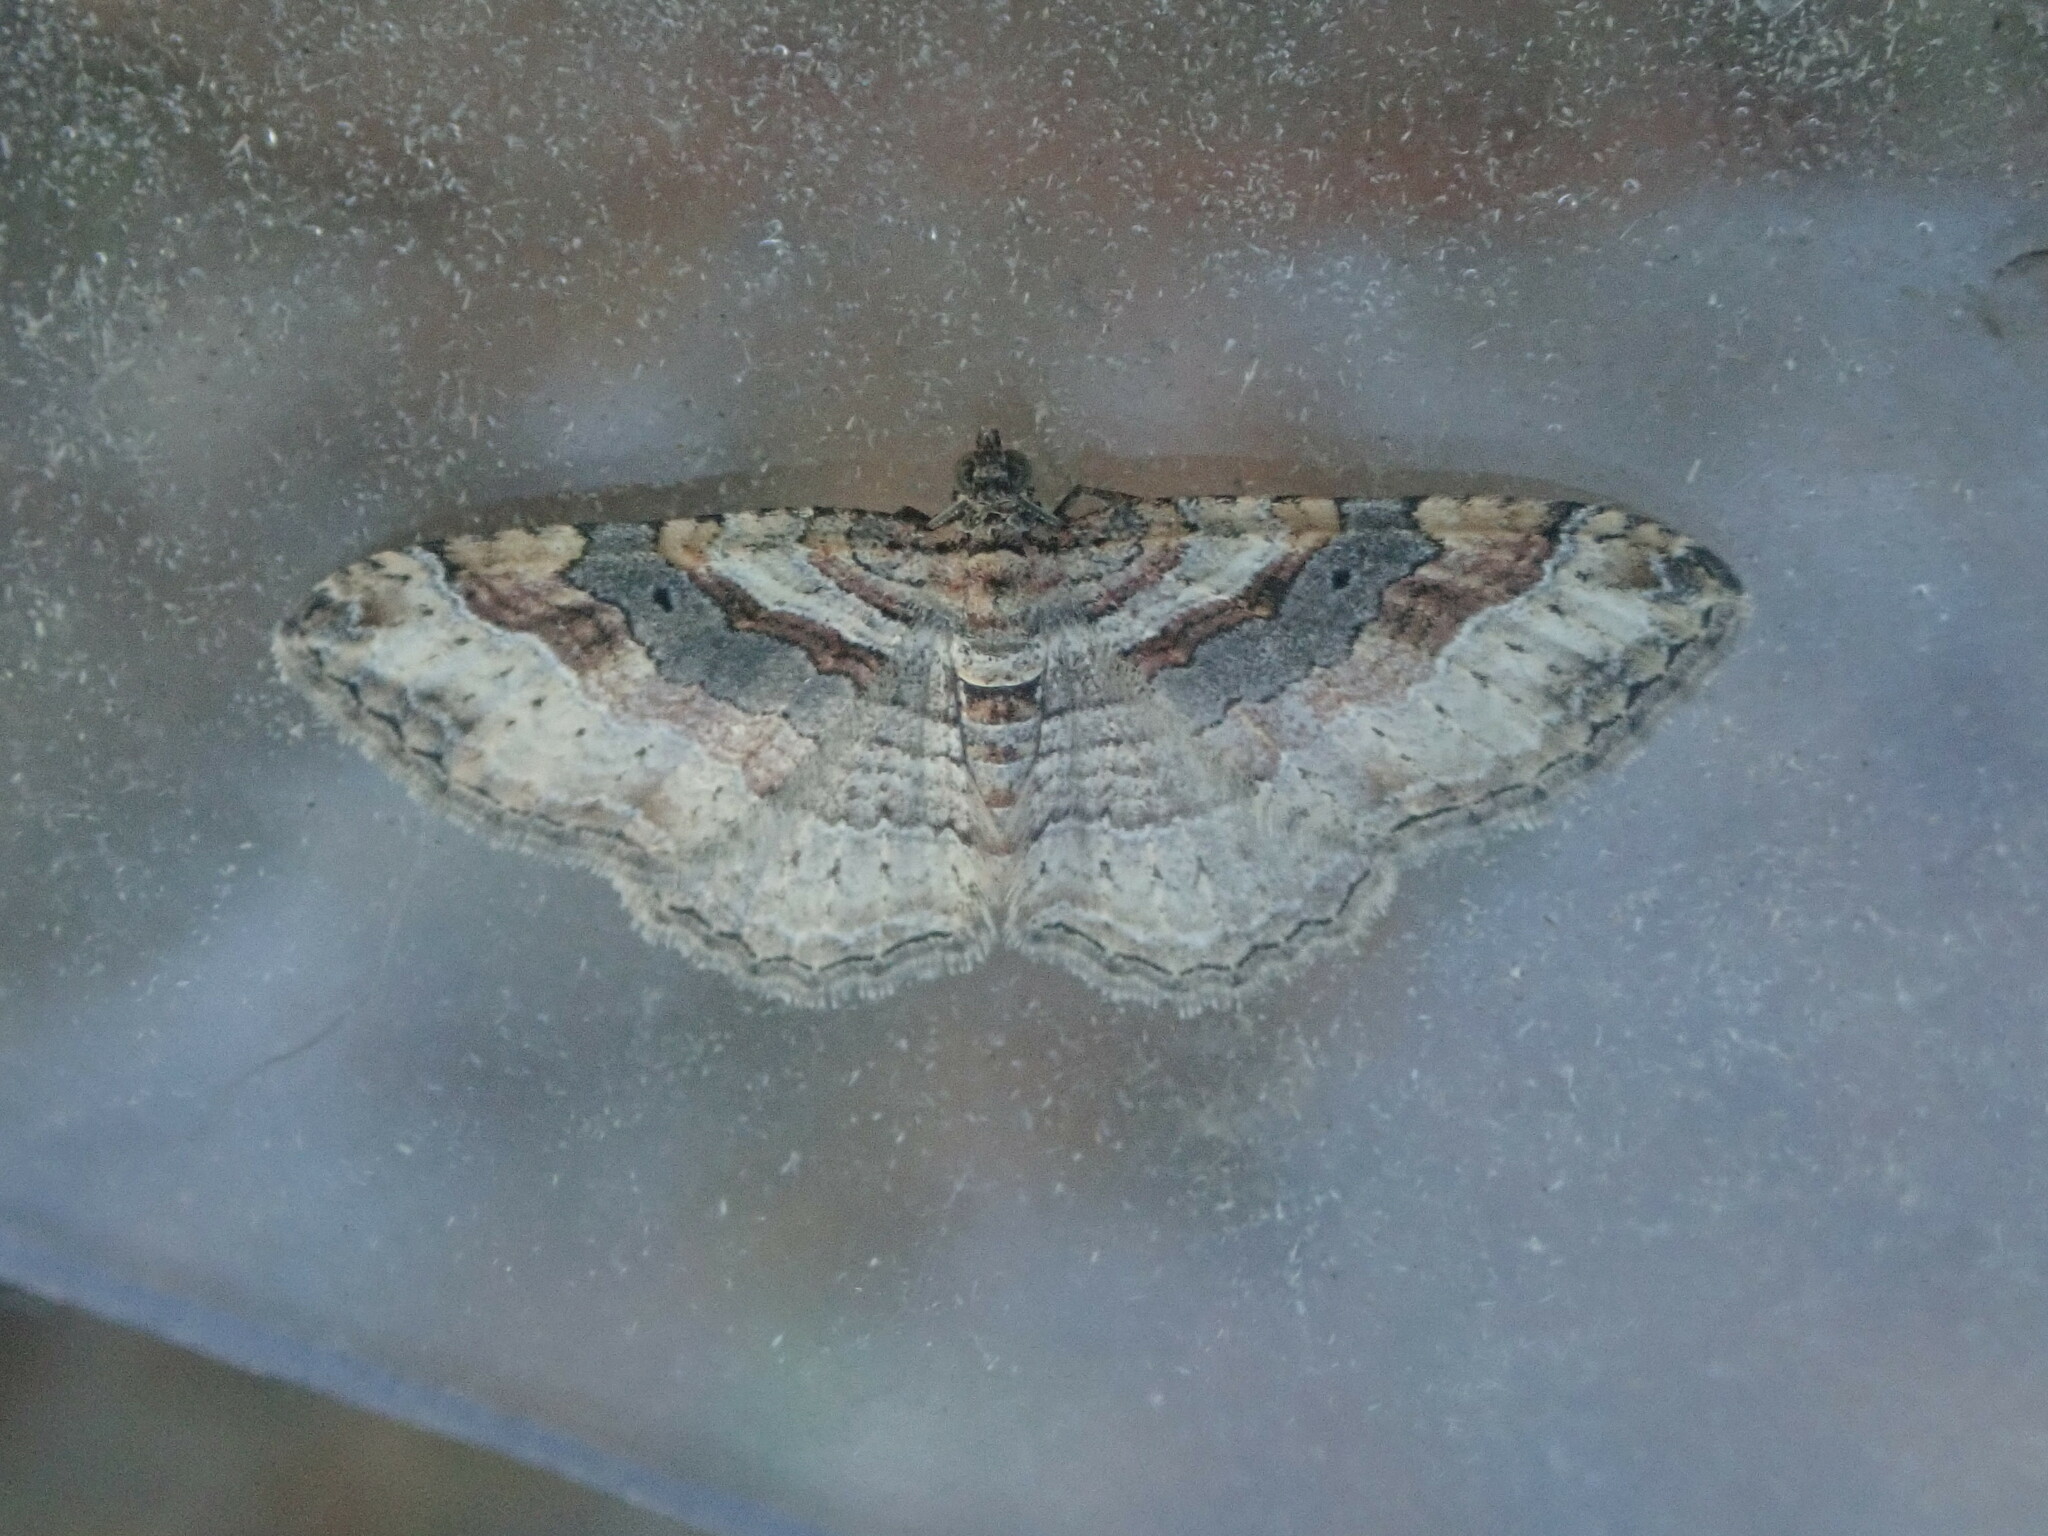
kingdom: Animalia
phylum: Arthropoda
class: Insecta
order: Lepidoptera
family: Geometridae
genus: Costaconvexa
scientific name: Costaconvexa centrostrigaria
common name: Bent-line carpet
